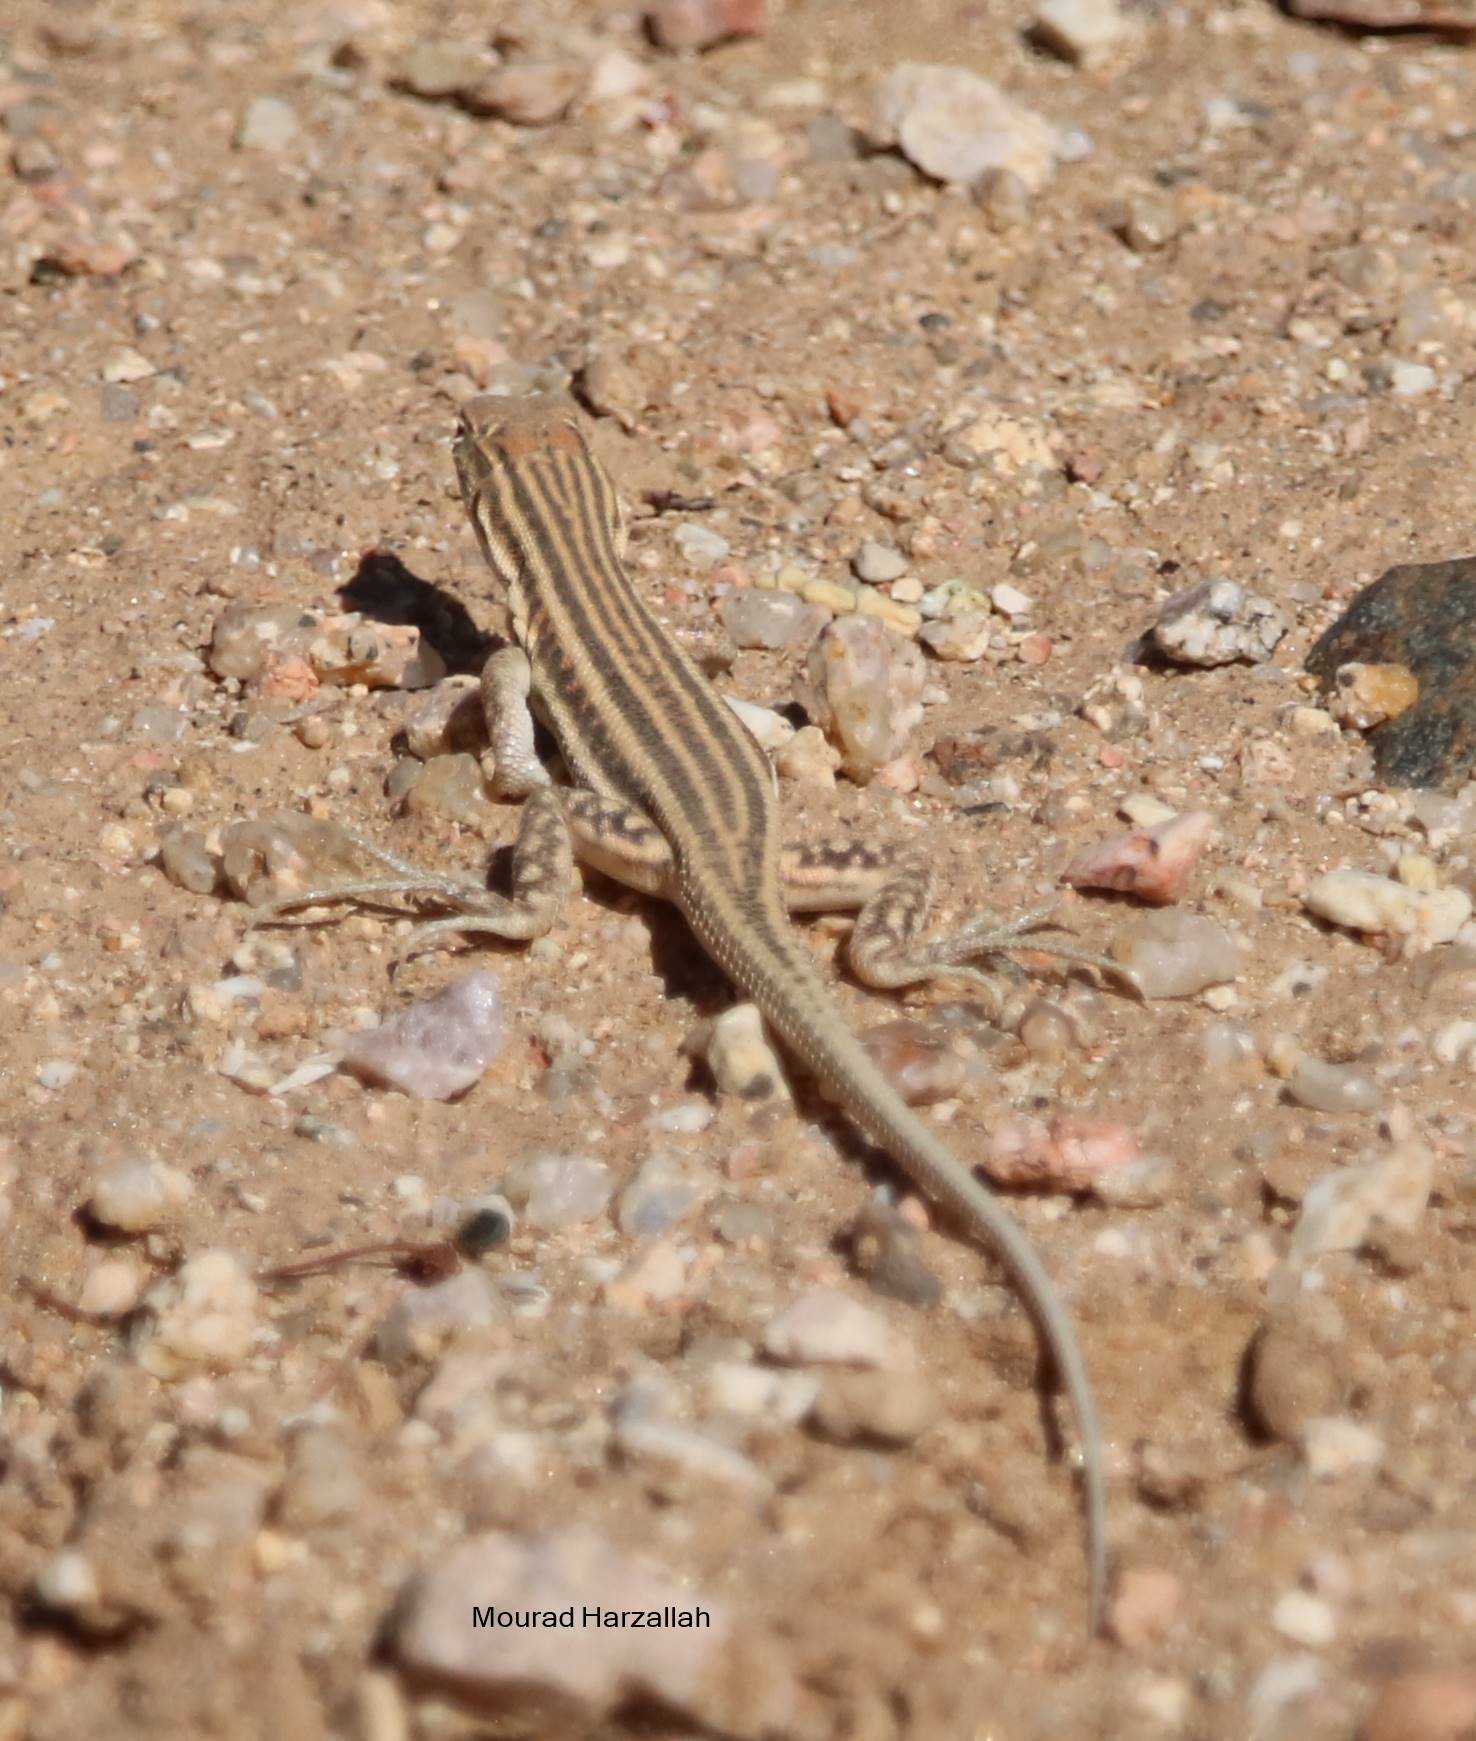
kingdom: Animalia
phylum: Chordata
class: Squamata
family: Lacertidae
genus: Acanthodactylus
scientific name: Acanthodactylus boskianus
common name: Bosc’s fringe-toed lizard
